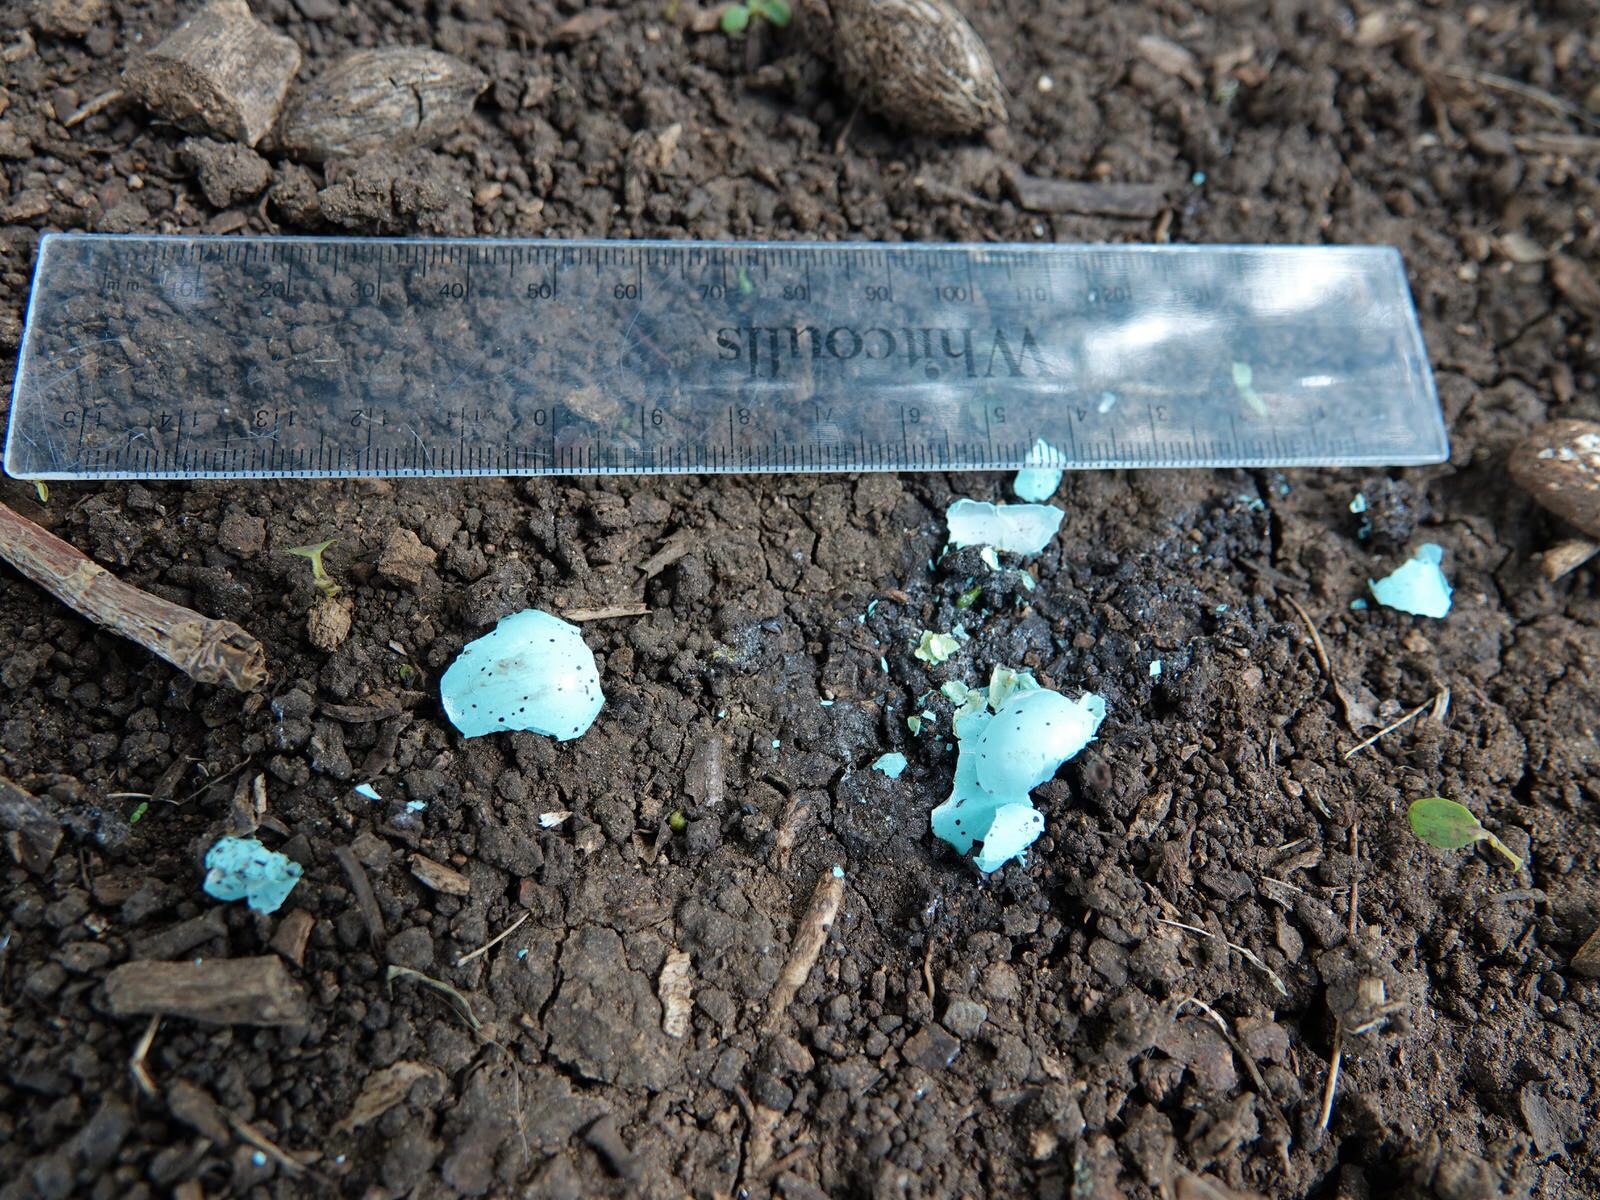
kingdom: Animalia
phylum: Chordata
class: Aves
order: Passeriformes
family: Turdidae
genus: Turdus
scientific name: Turdus philomelos
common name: Song thrush
